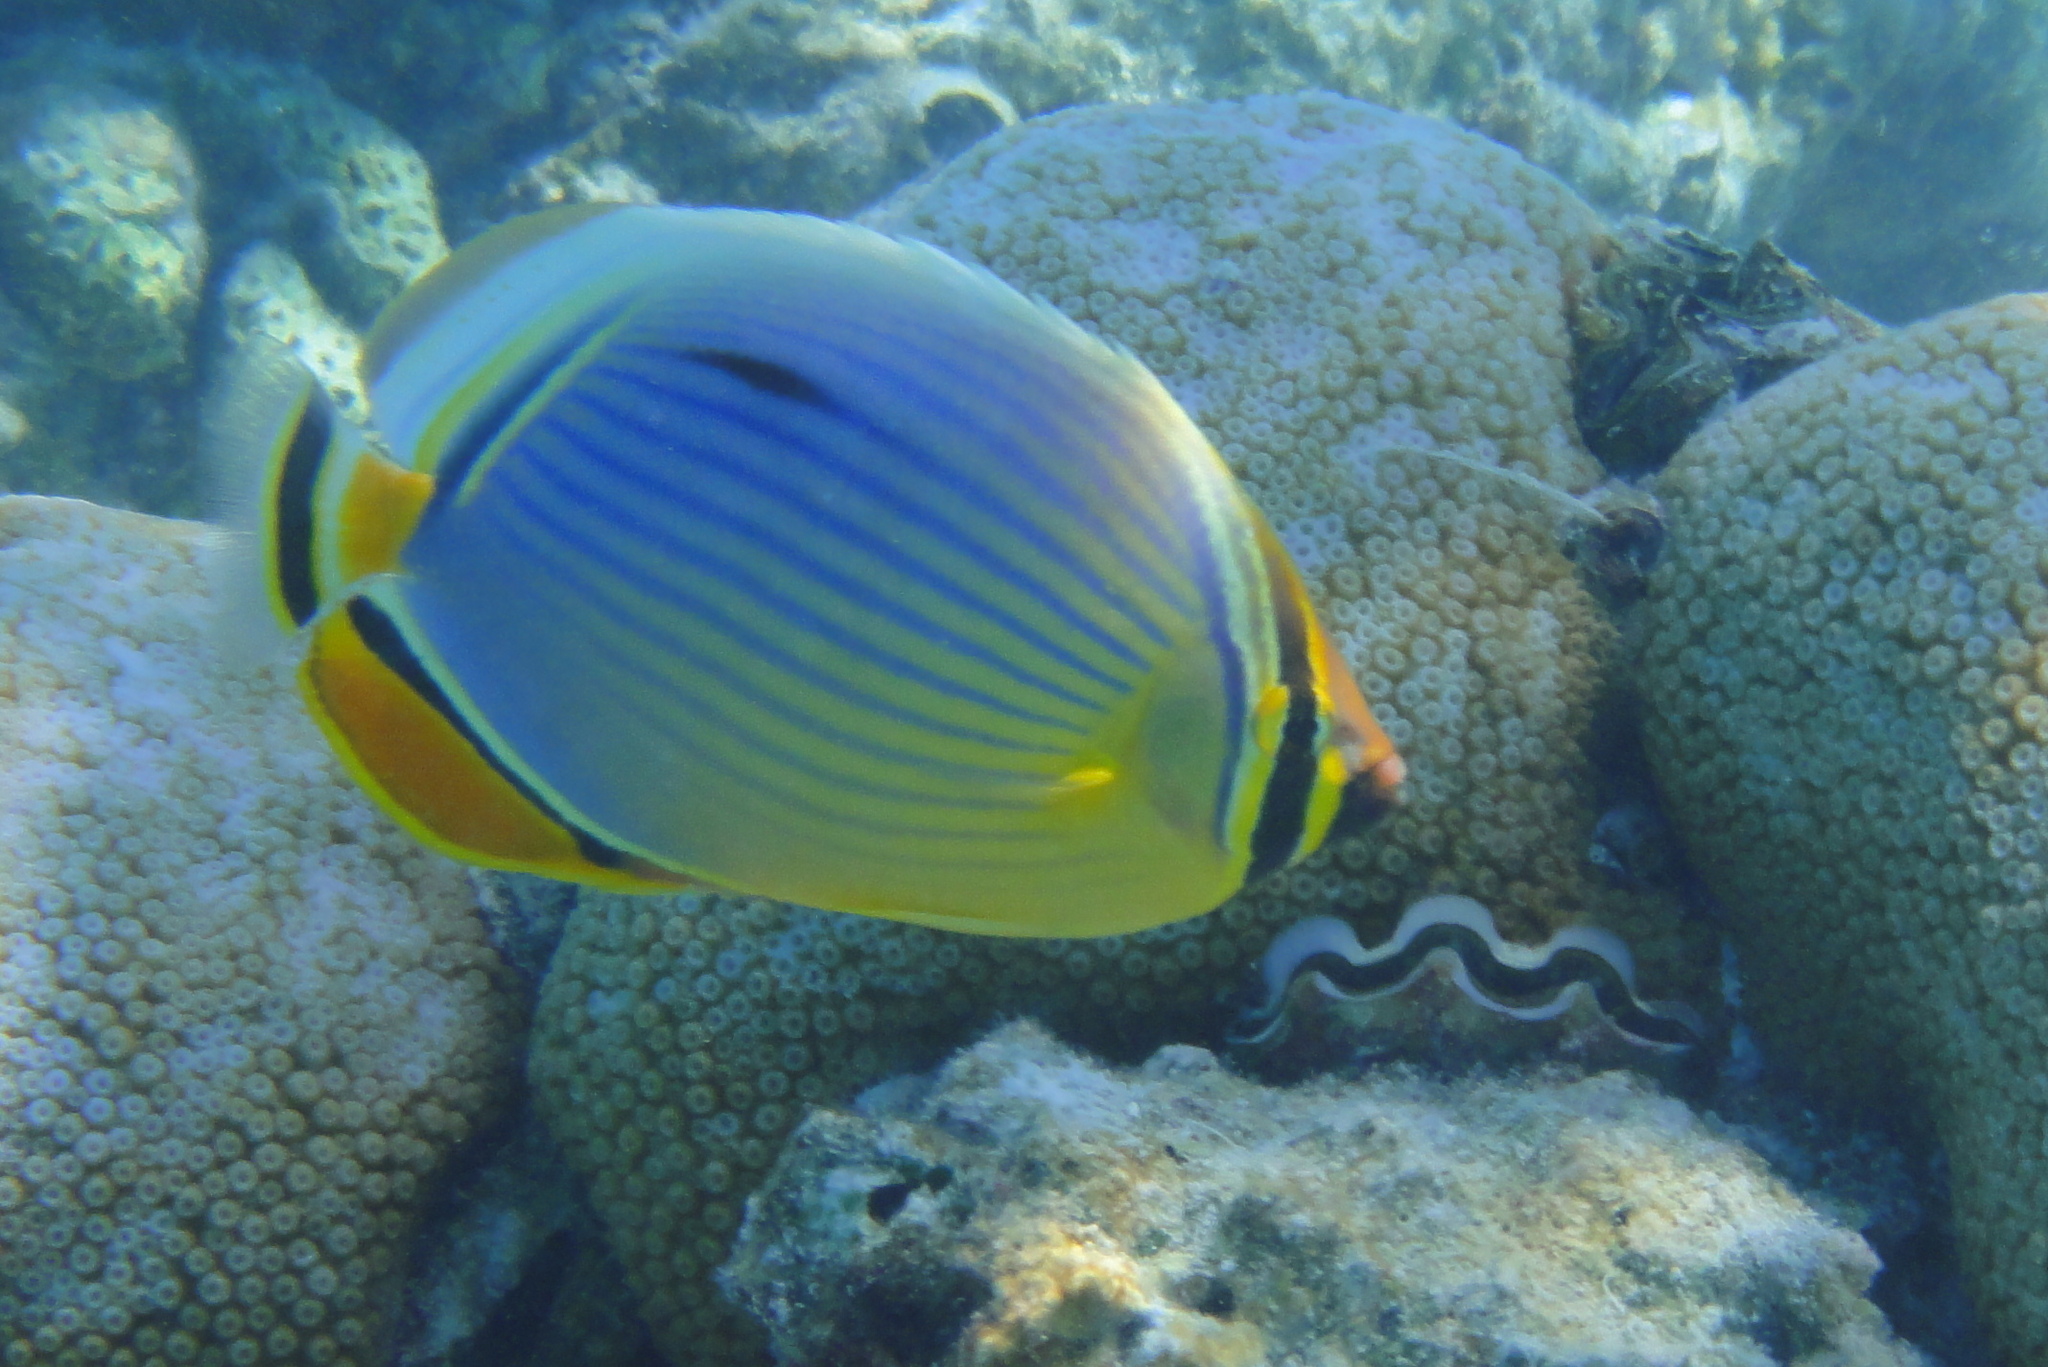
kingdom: Animalia
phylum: Chordata
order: Perciformes
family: Chaetodontidae
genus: Chaetodon
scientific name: Chaetodon trifasciatus
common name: Redfin butterflyfish
